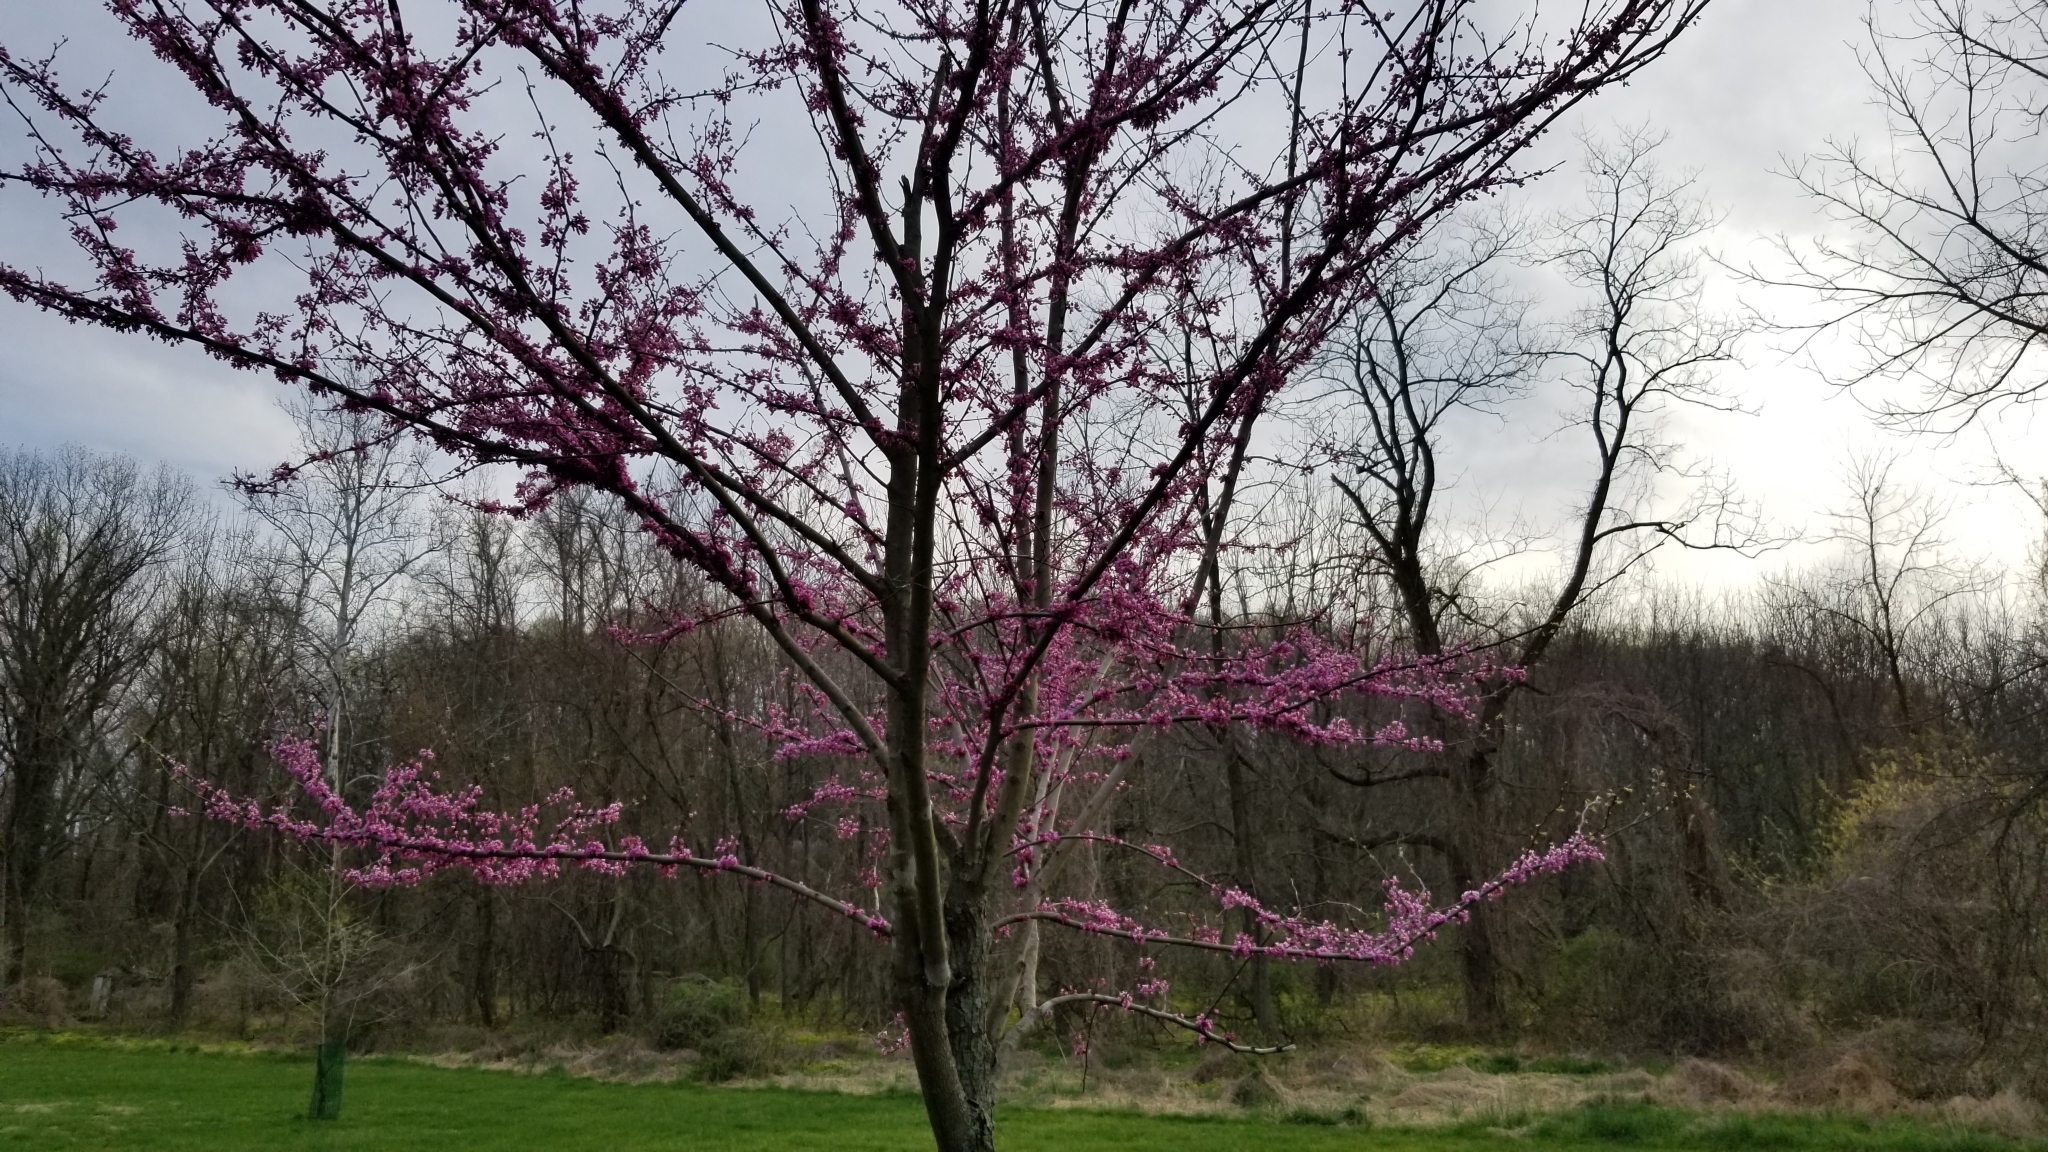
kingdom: Plantae
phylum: Tracheophyta
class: Magnoliopsida
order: Fabales
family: Fabaceae
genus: Cercis
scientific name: Cercis canadensis
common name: Eastern redbud
